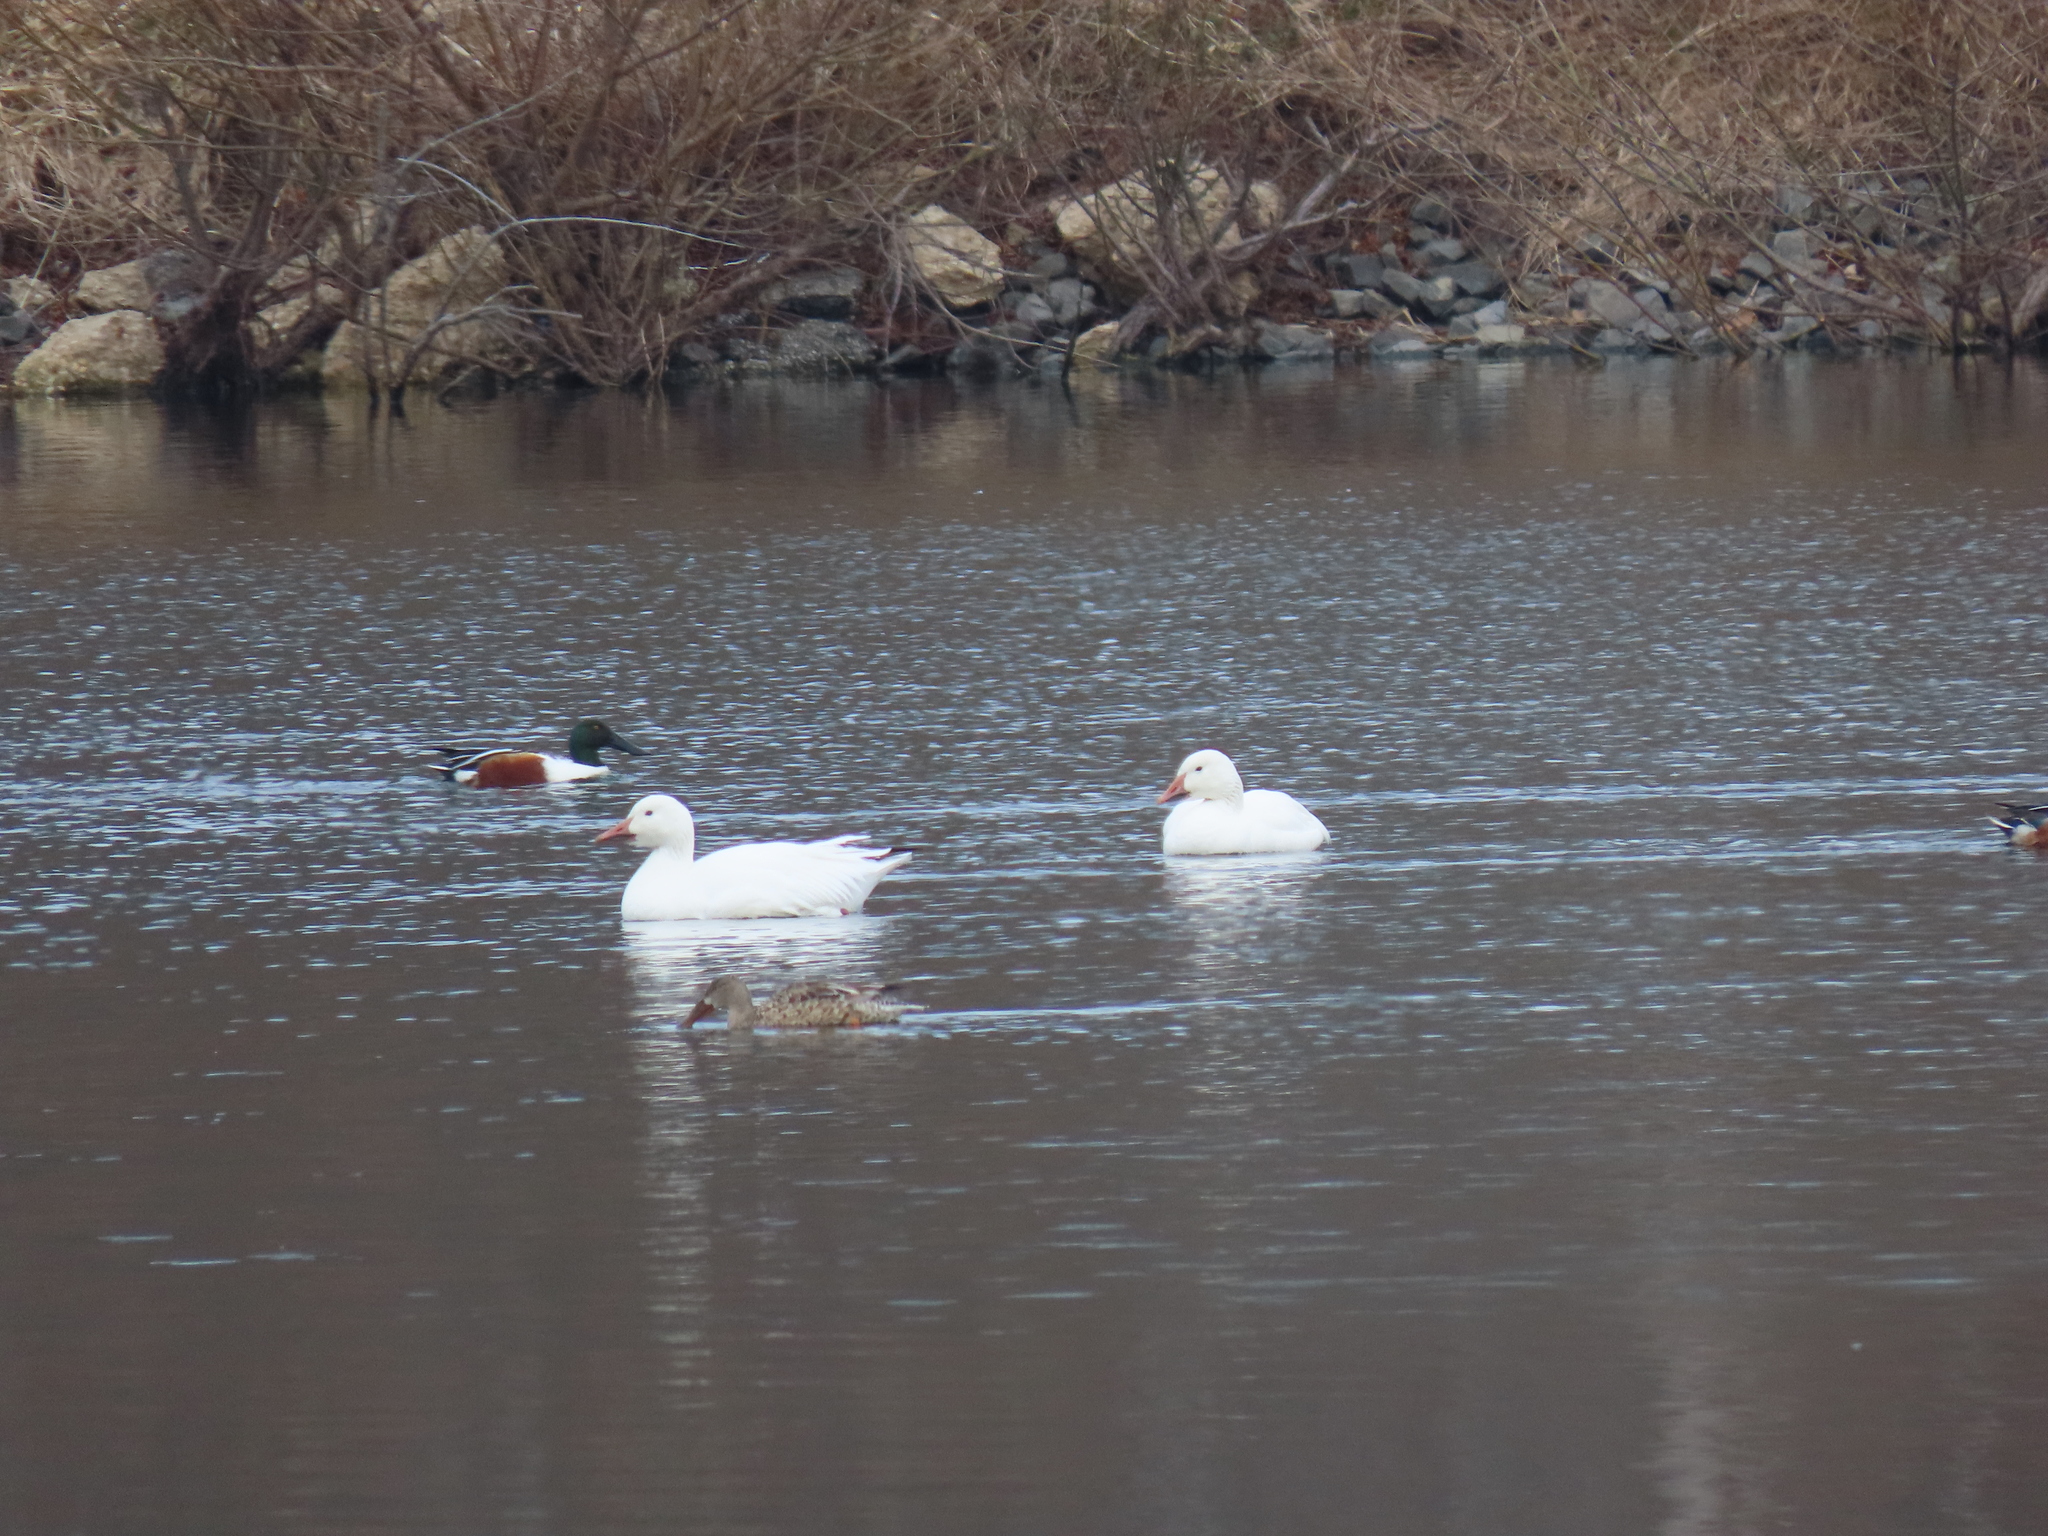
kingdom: Animalia
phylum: Chordata
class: Aves
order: Anseriformes
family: Anatidae
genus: Anser
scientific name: Anser caerulescens
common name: Snow goose
